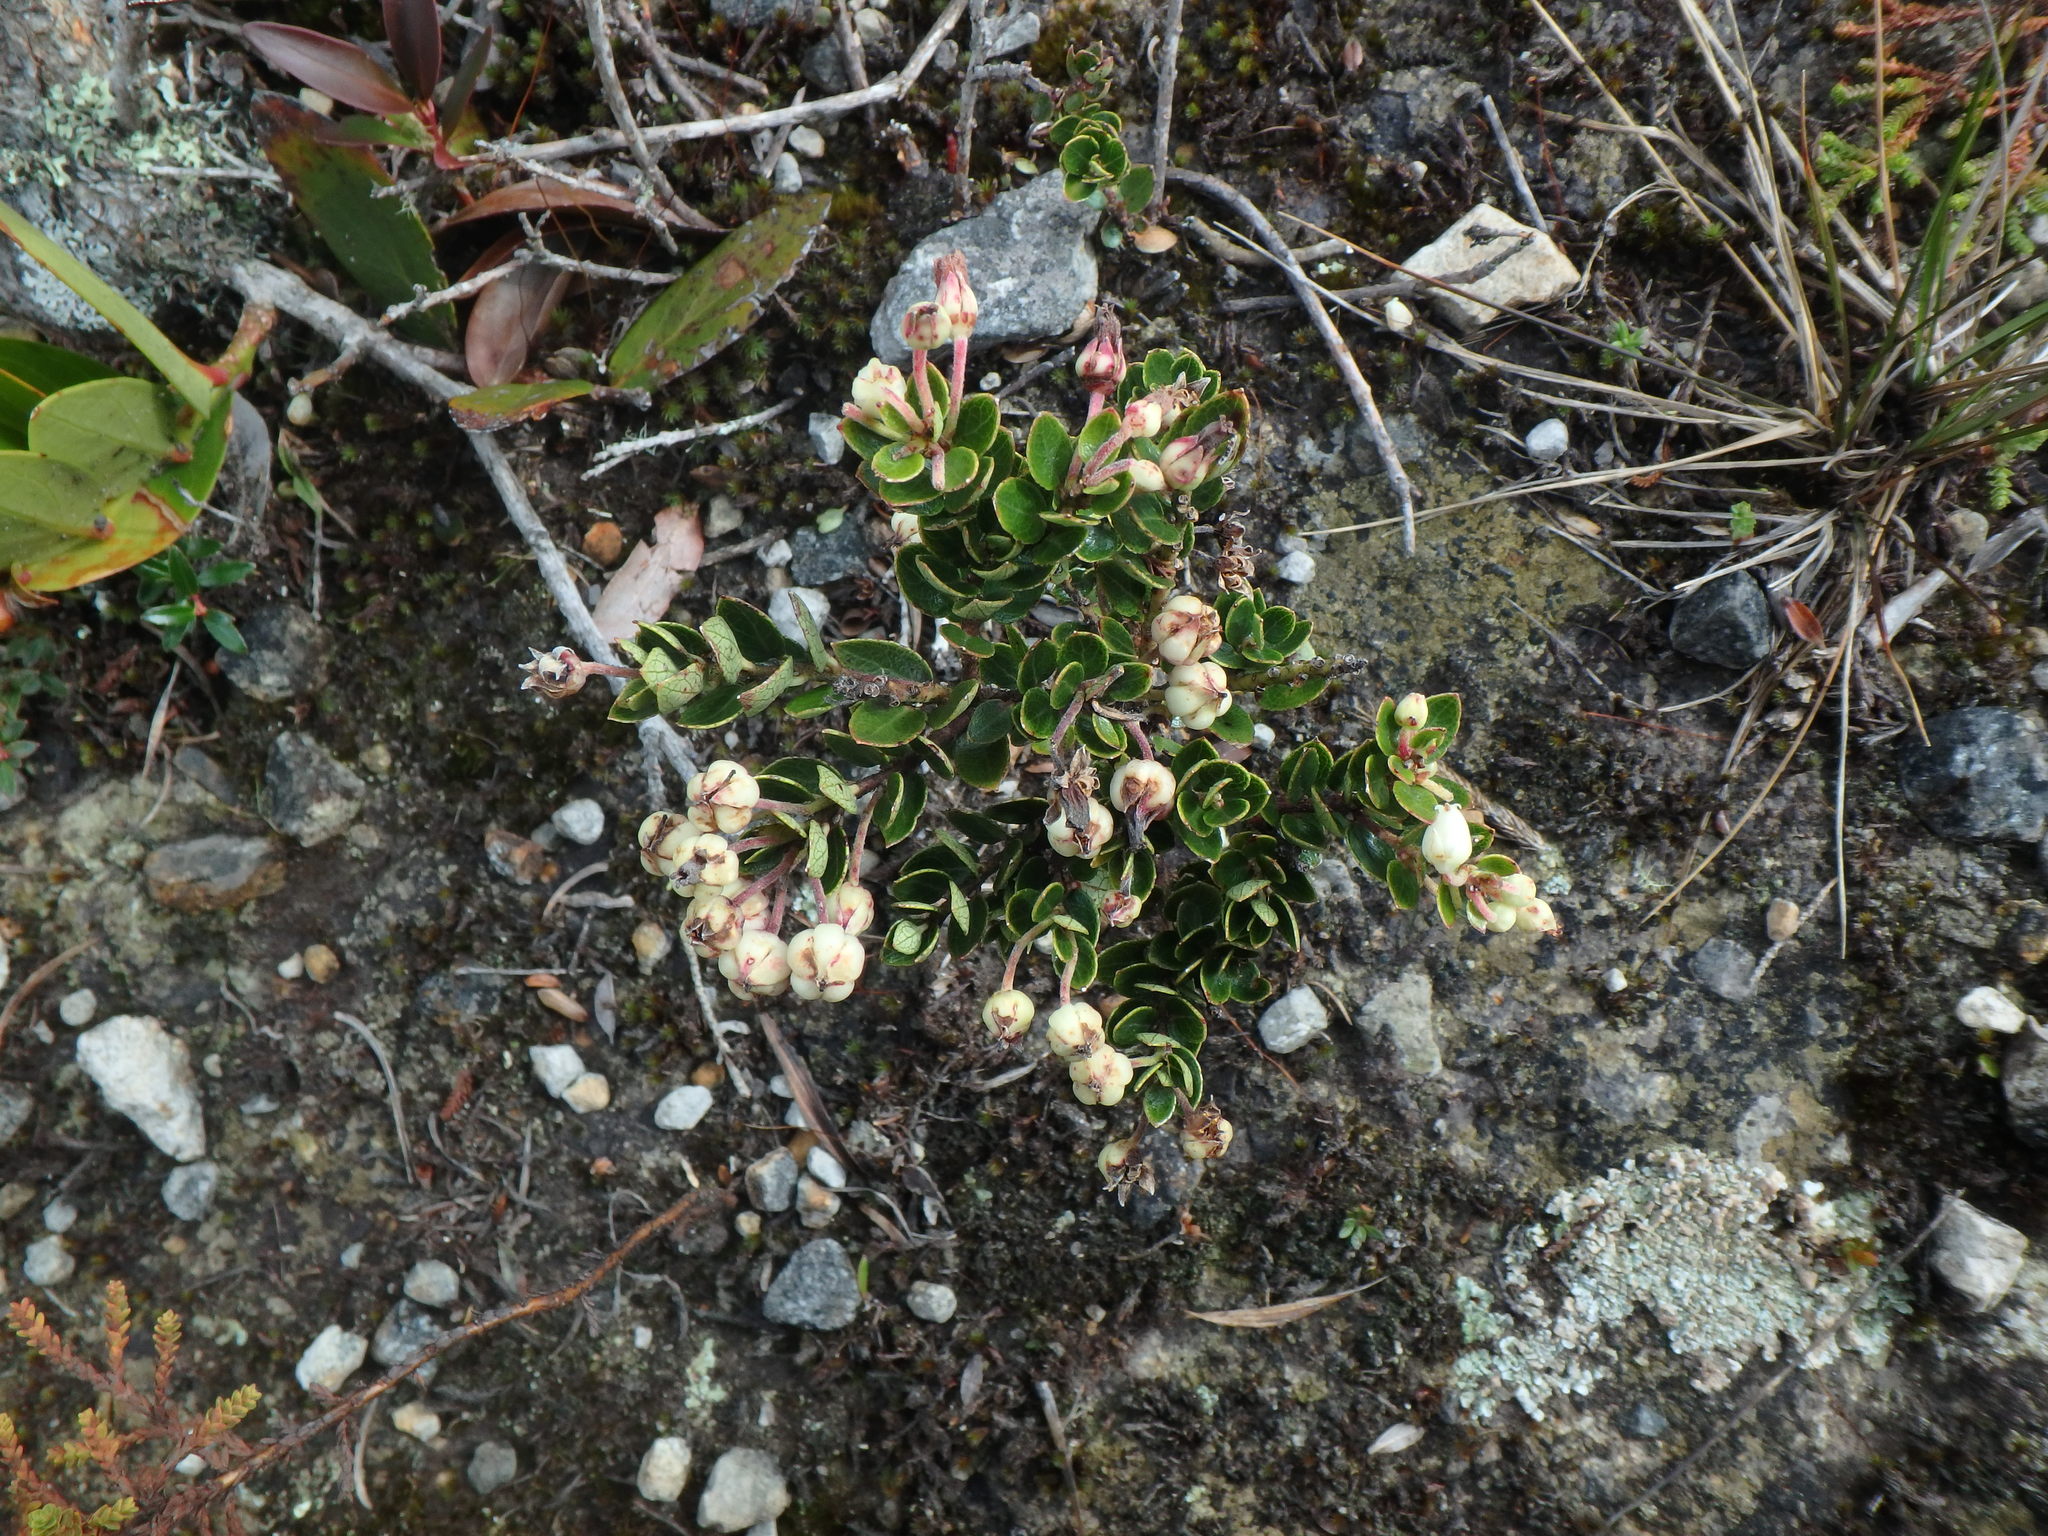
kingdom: Plantae
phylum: Tracheophyta
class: Magnoliopsida
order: Ericales
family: Ericaceae
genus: Gaultheria
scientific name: Gaultheria anastomosans
